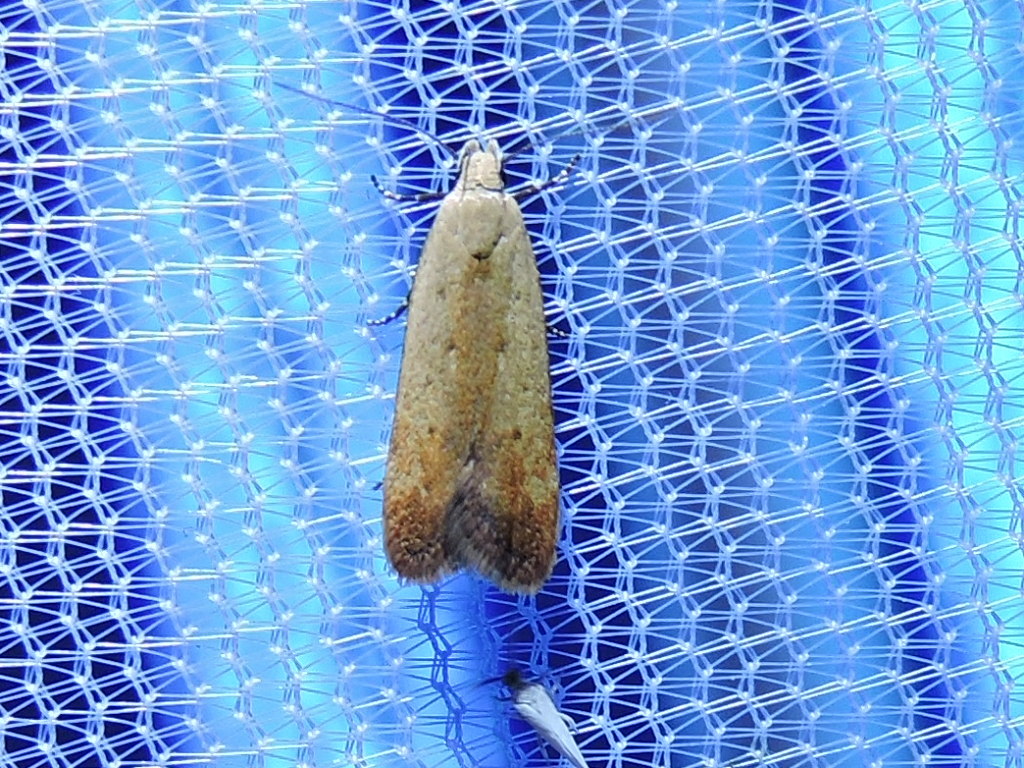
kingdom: Animalia
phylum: Arthropoda
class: Insecta
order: Lepidoptera
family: Gelechiidae
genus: Anacampsis
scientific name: Anacampsis fullonella
